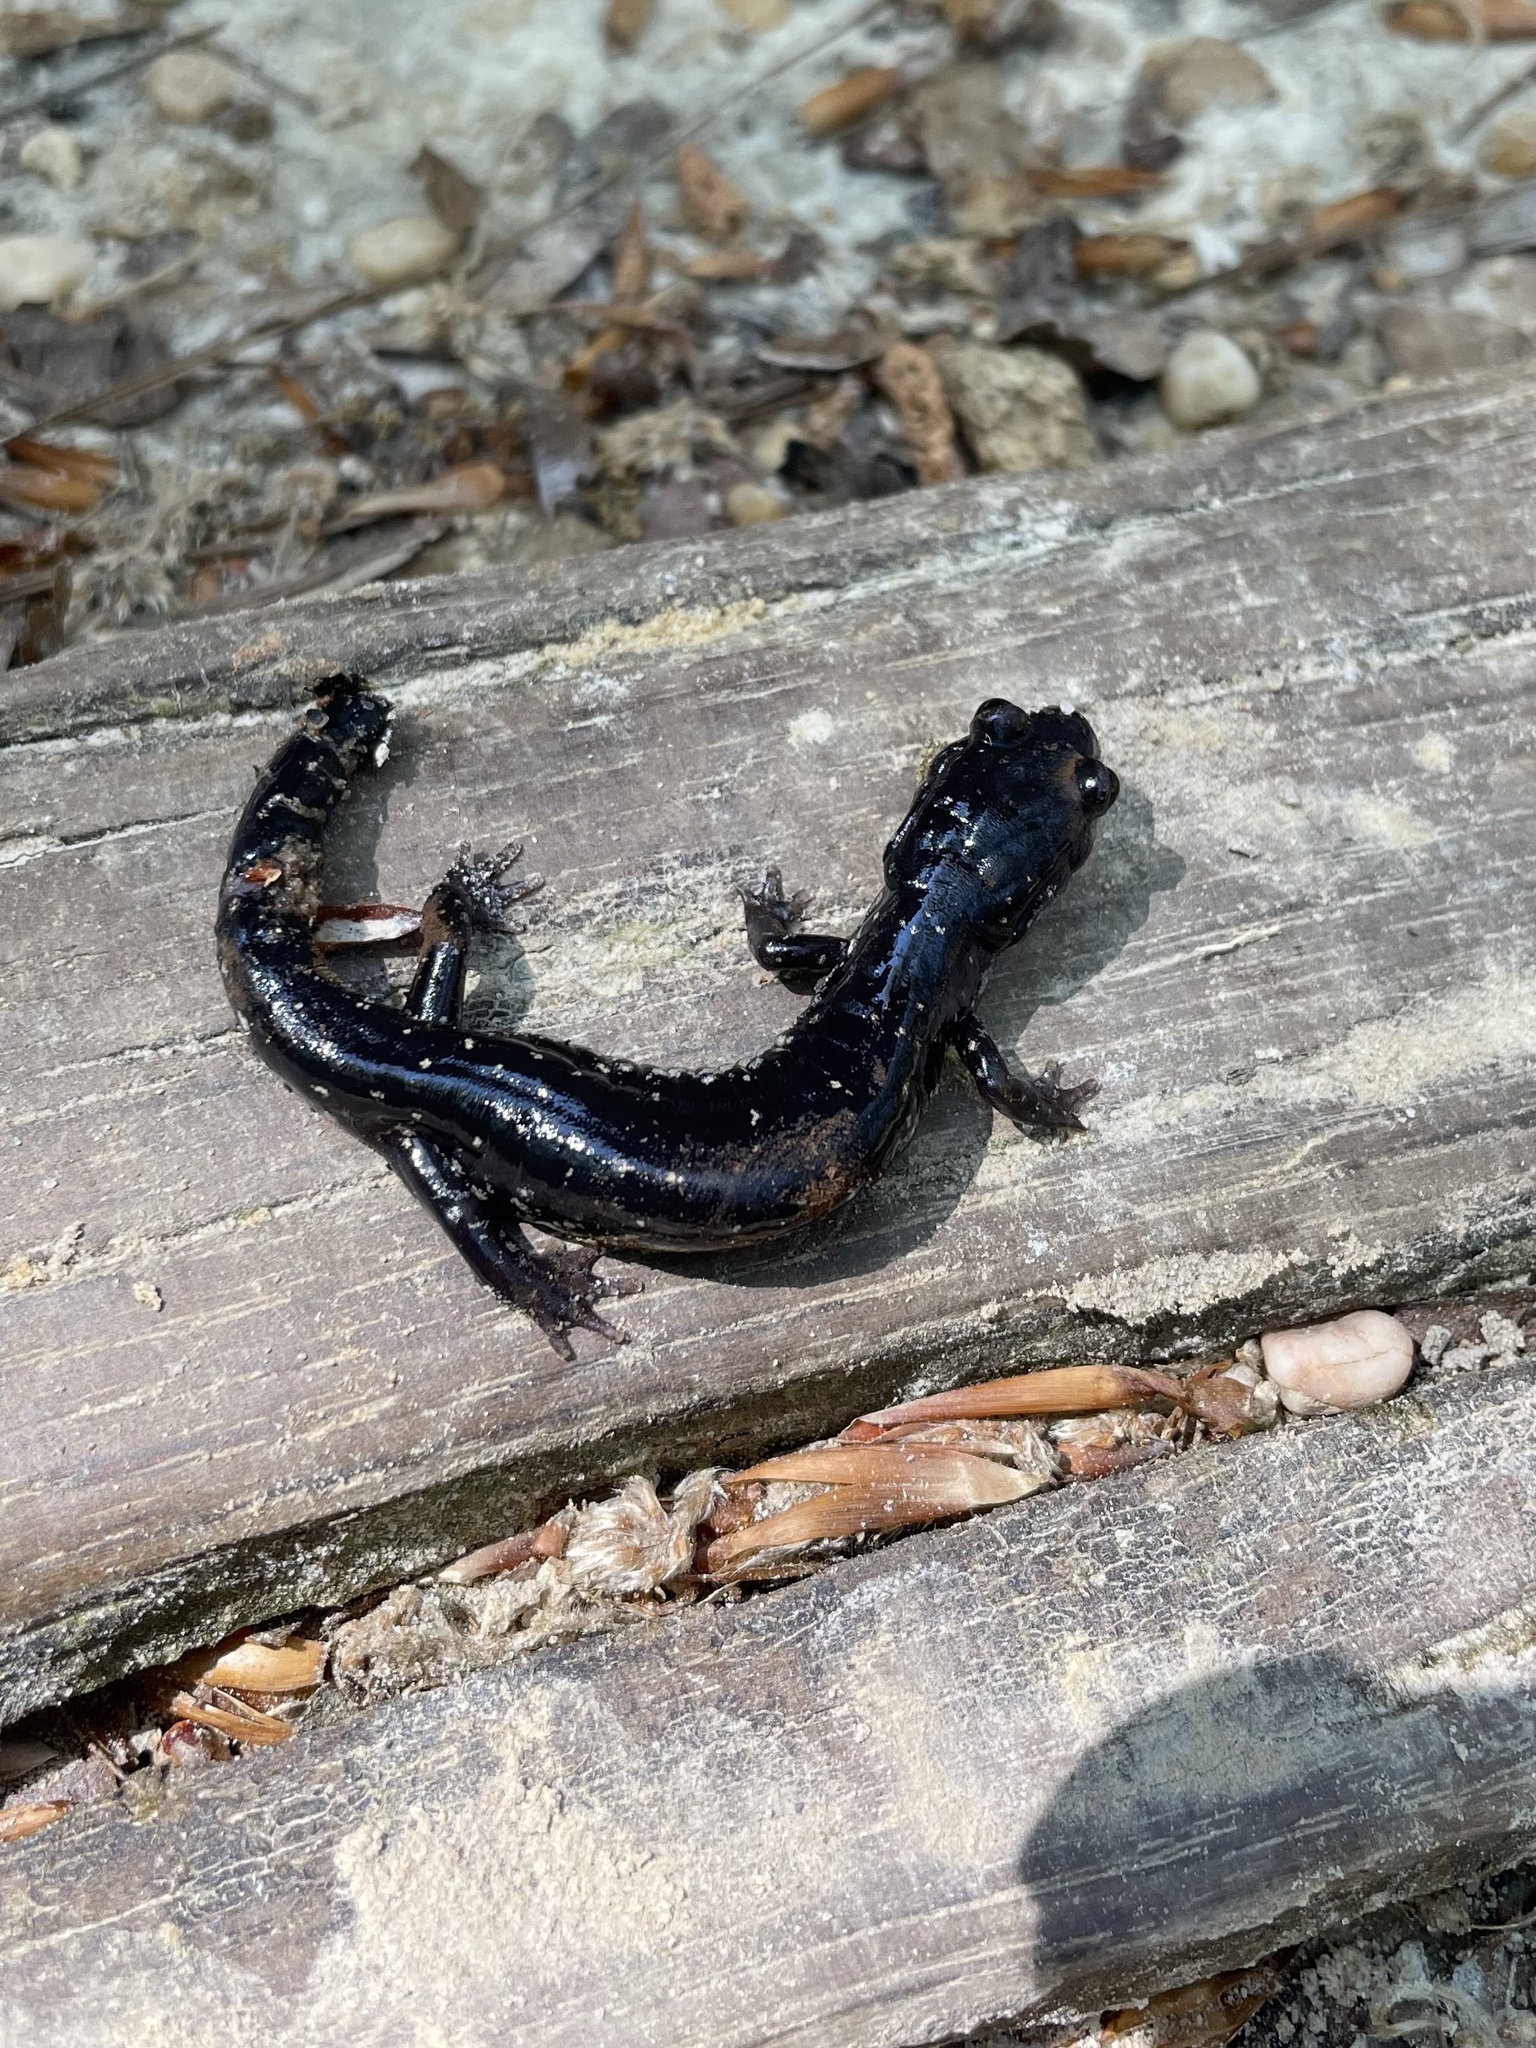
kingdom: Animalia
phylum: Chordata
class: Amphibia
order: Caudata
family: Plethodontidae
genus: Plethodon
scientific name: Plethodon mississippi
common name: Mississippi slimy salamander
